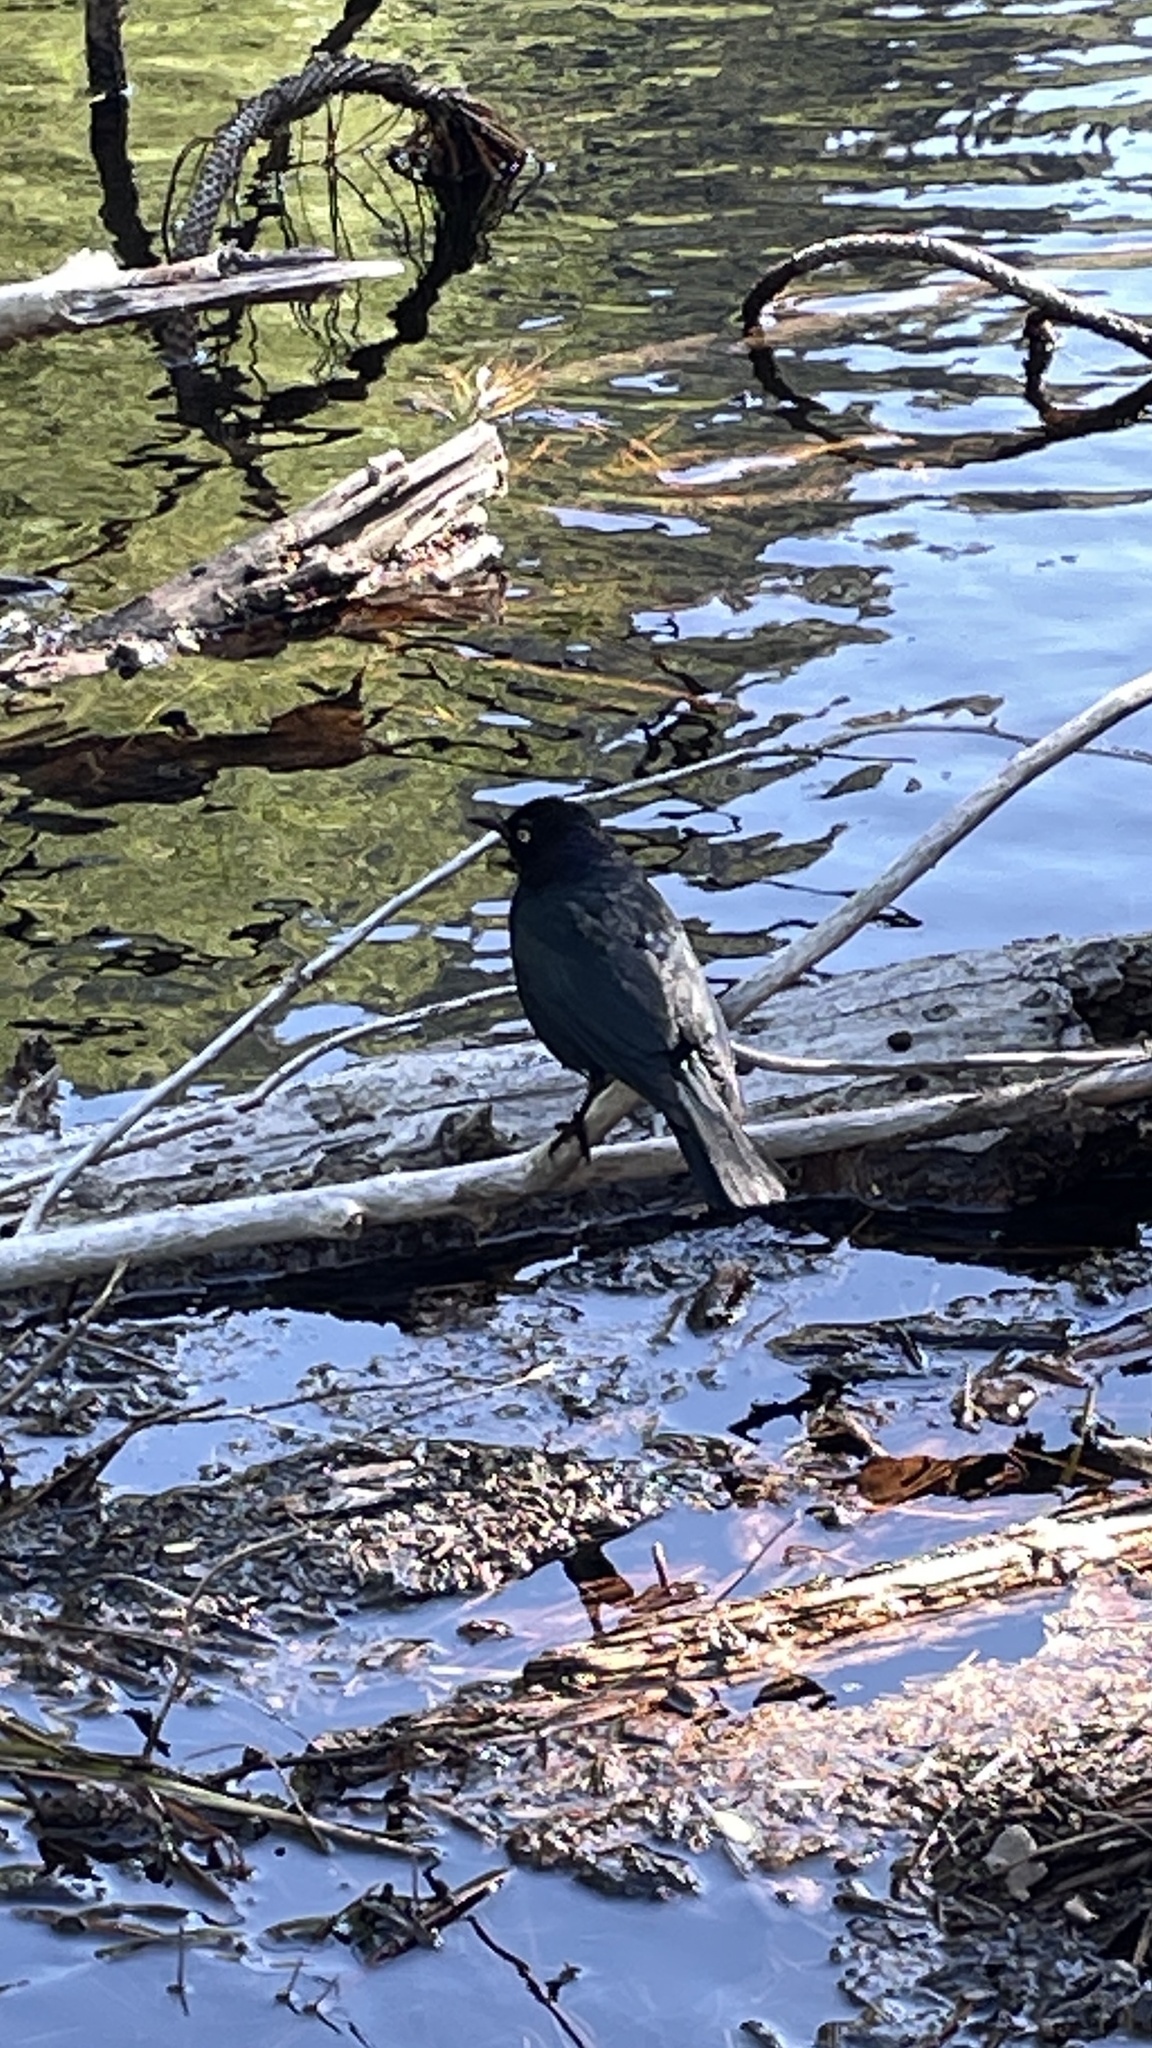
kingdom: Animalia
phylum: Chordata
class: Aves
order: Passeriformes
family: Icteridae
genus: Euphagus
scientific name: Euphagus cyanocephalus
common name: Brewer's blackbird
